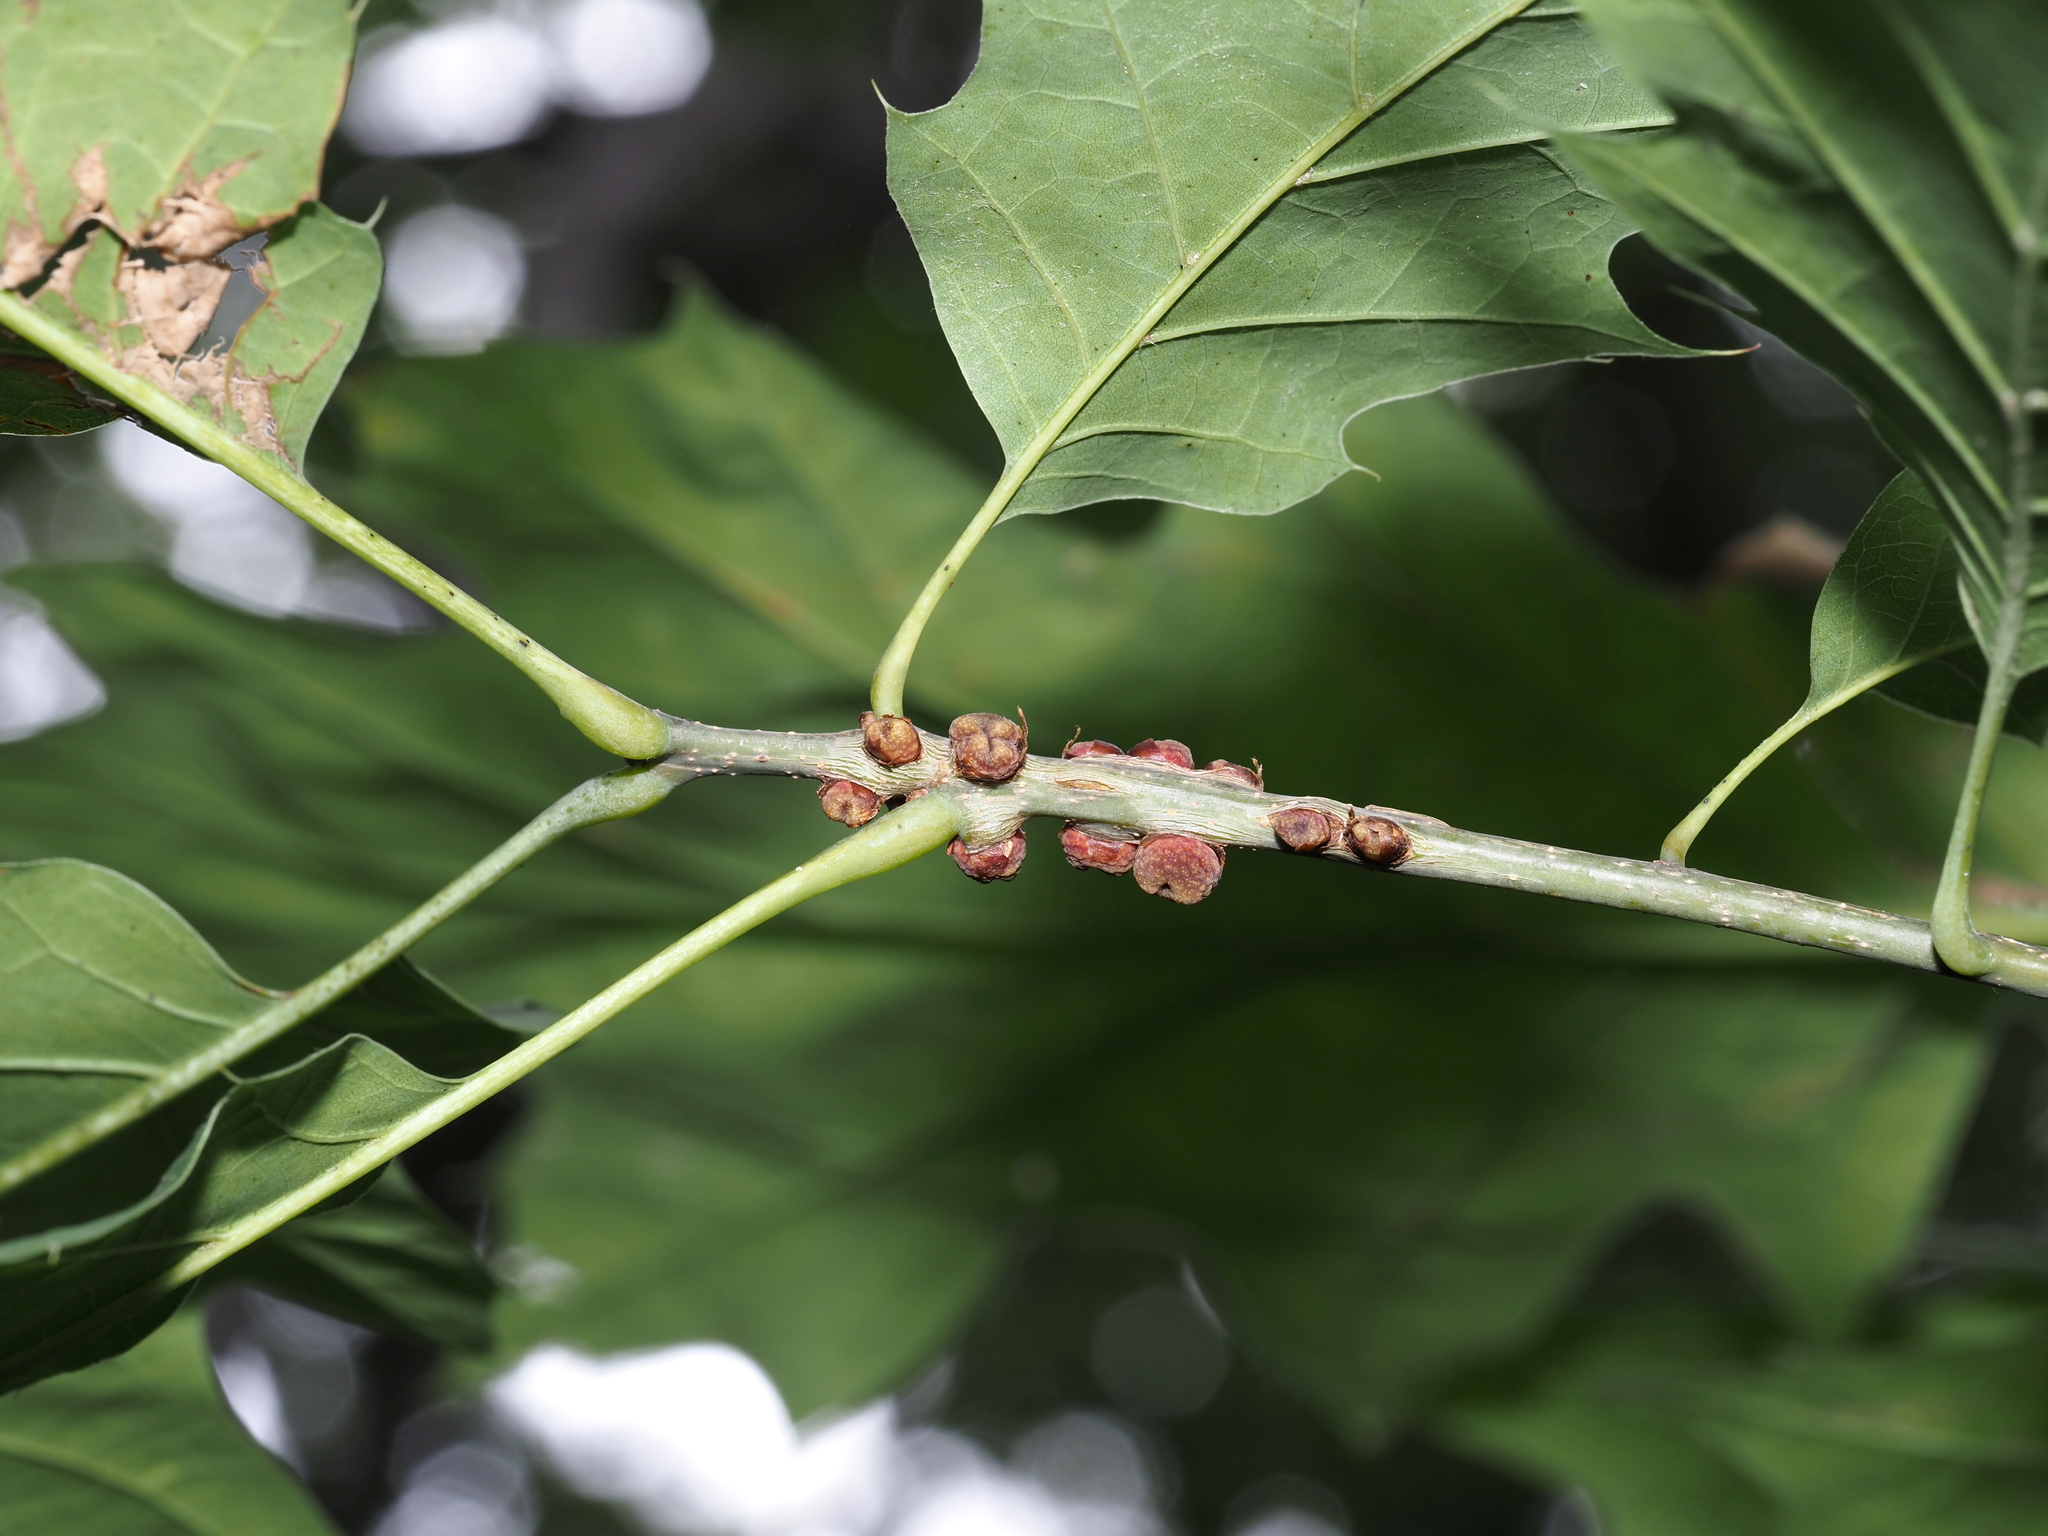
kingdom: Animalia
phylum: Arthropoda
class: Insecta
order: Hymenoptera
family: Cynipidae
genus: Kokkocynips
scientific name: Kokkocynips imbricariae
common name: Banded bullet gall wasp
